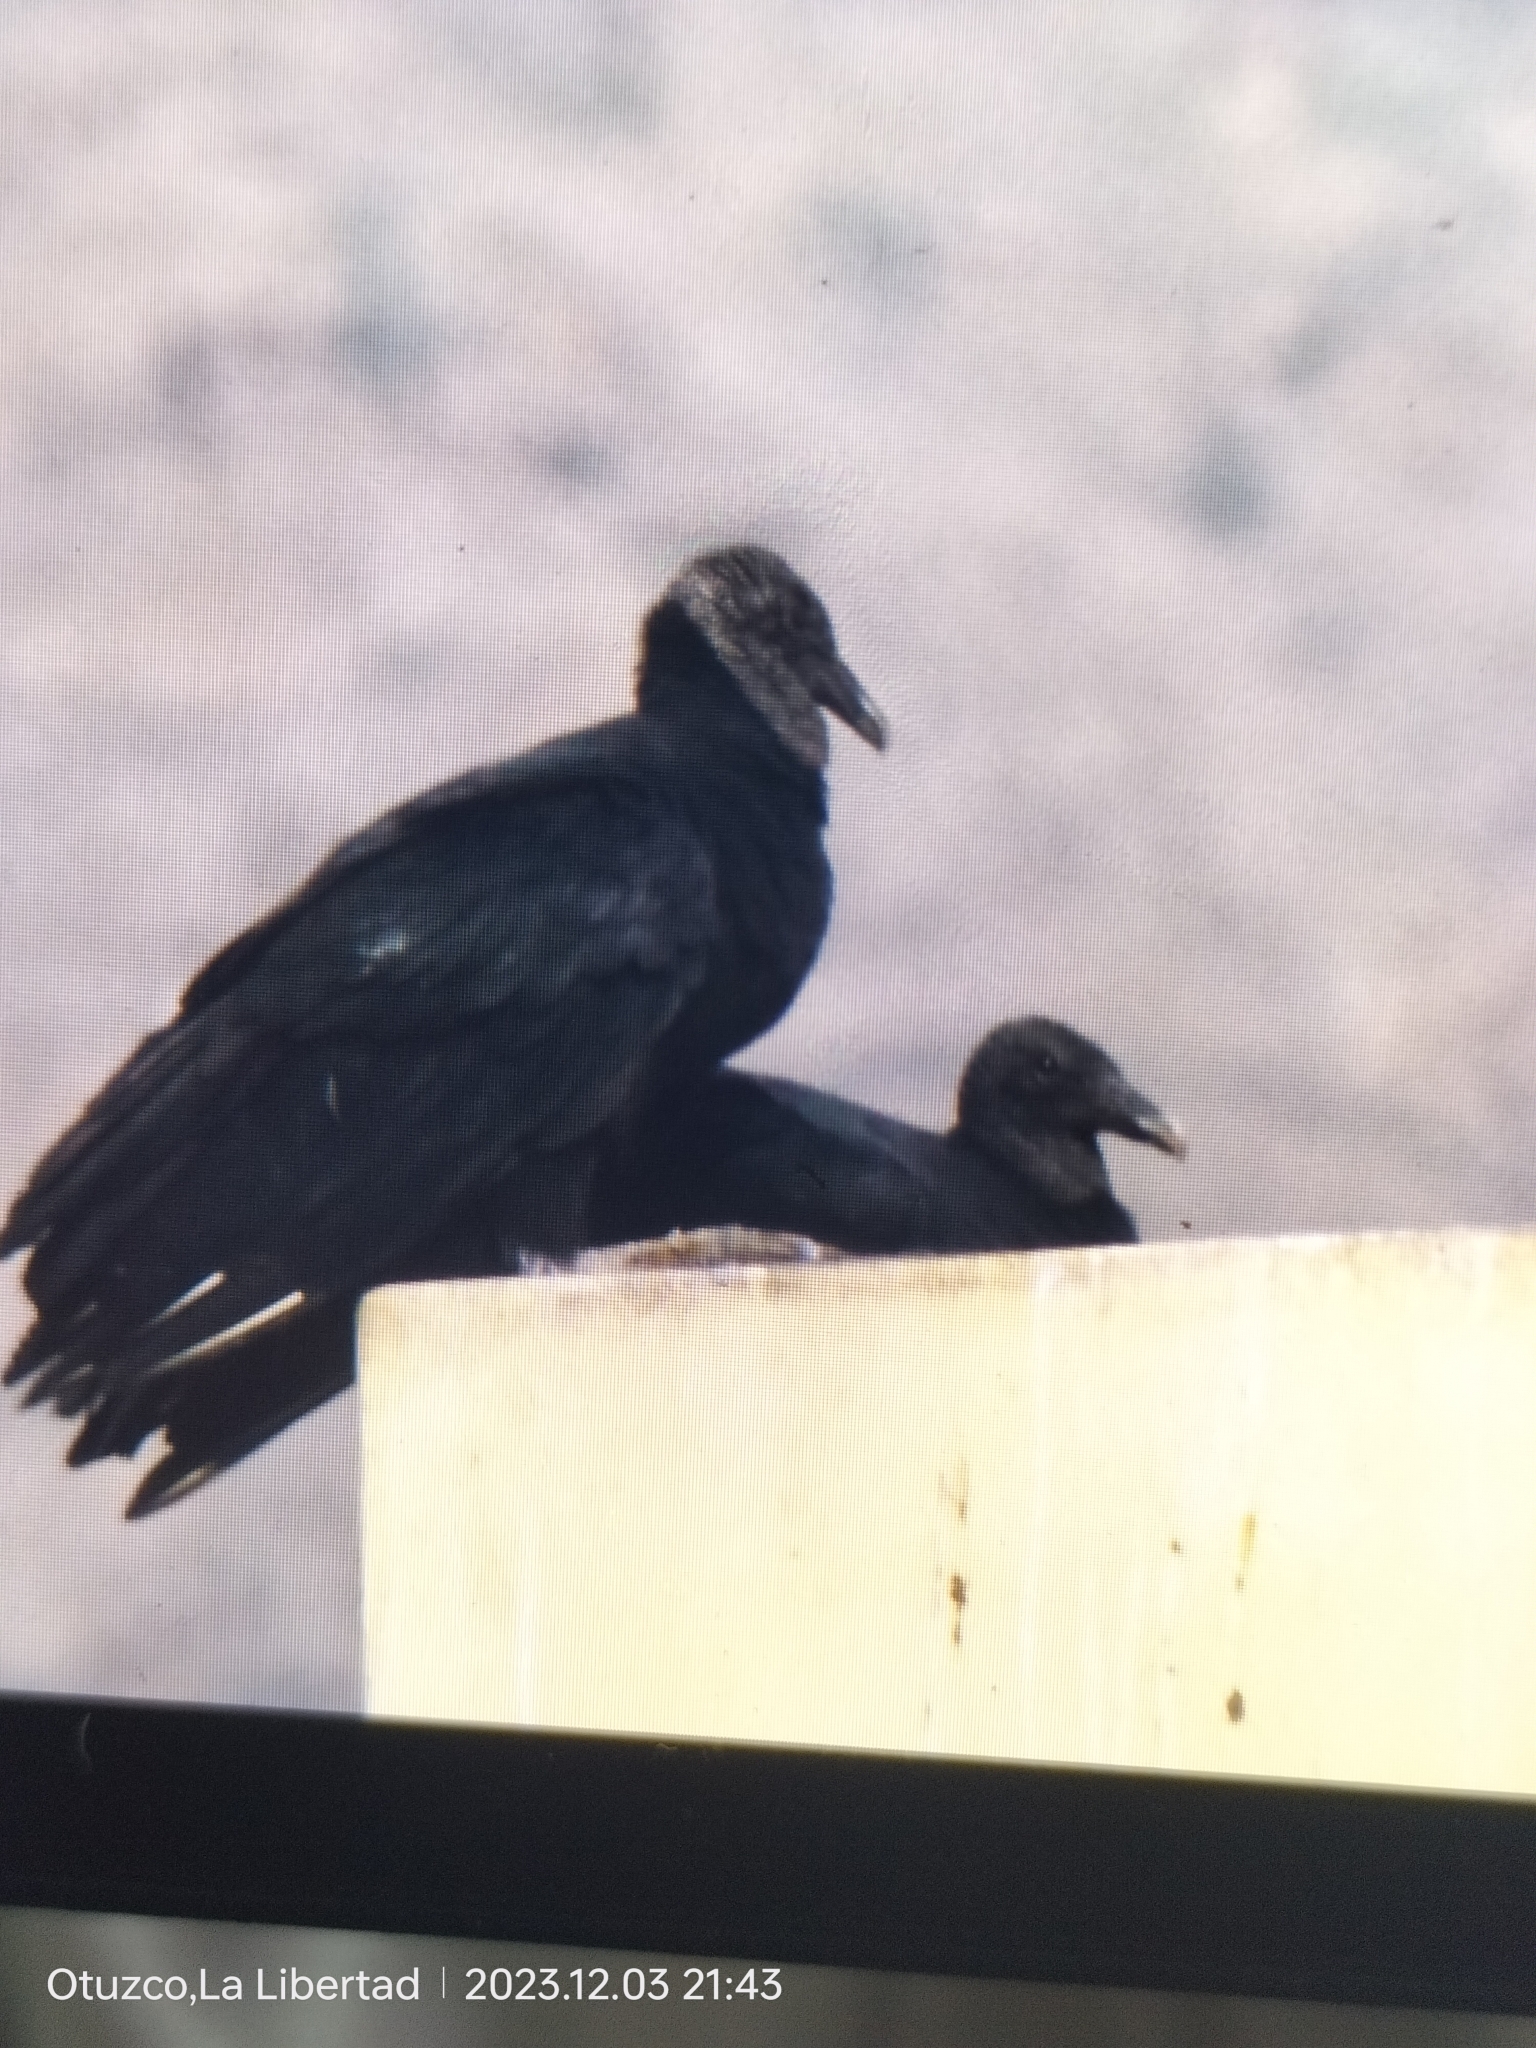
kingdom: Animalia
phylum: Chordata
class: Aves
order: Accipitriformes
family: Cathartidae
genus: Coragyps
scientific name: Coragyps atratus
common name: Black vulture
